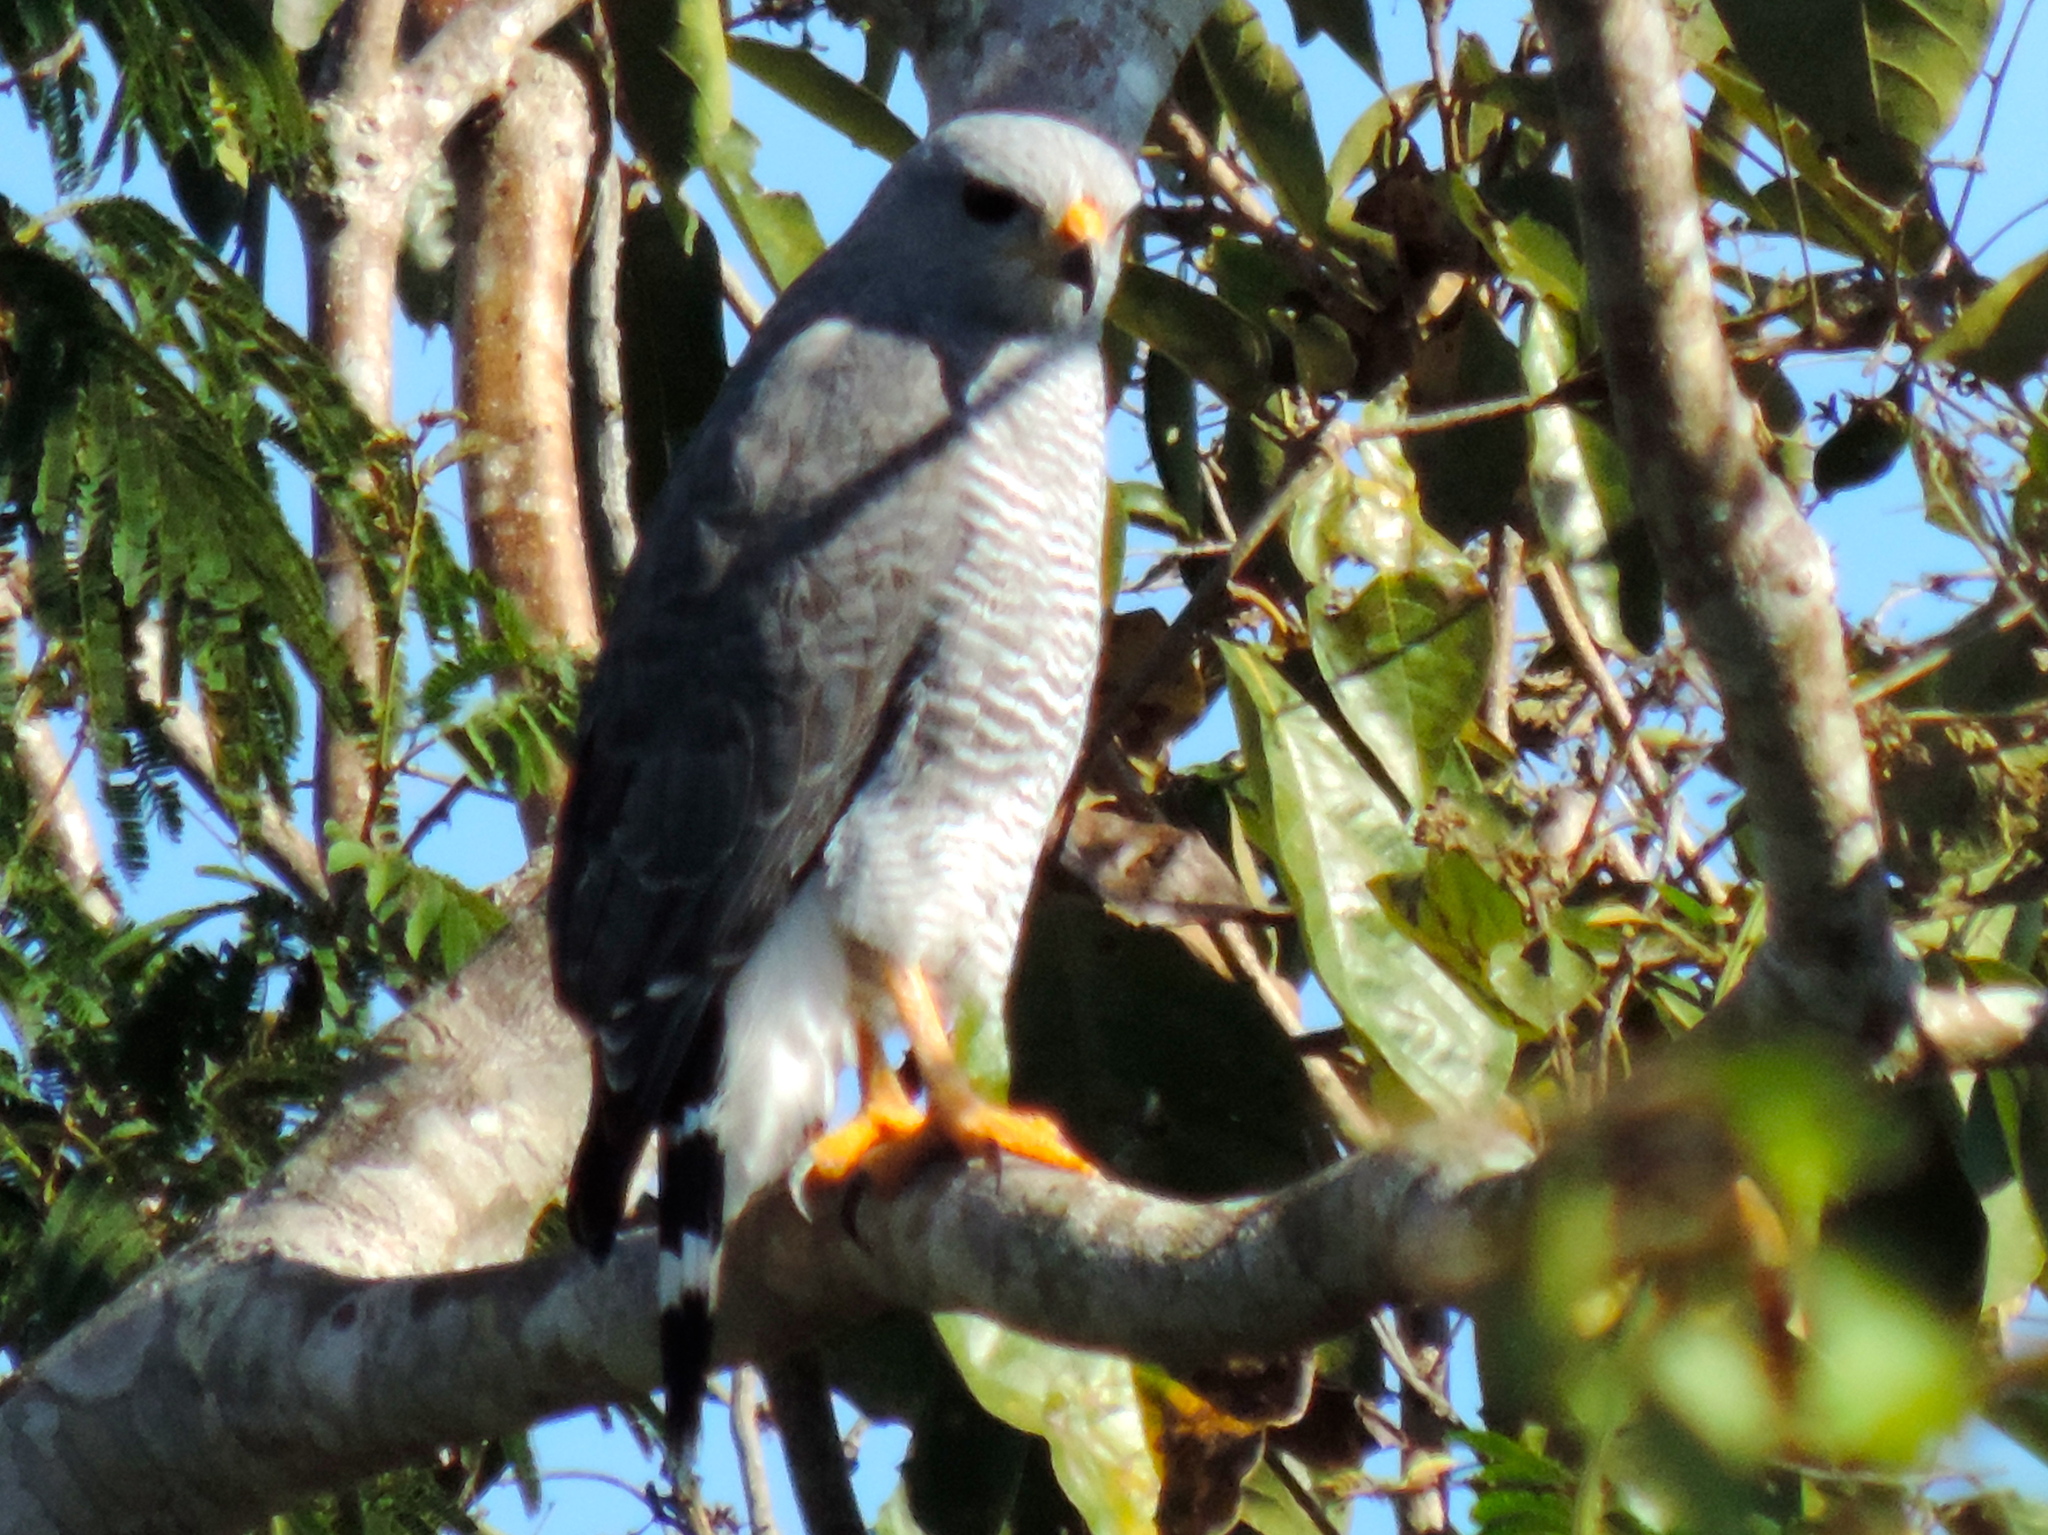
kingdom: Animalia
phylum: Chordata
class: Aves
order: Accipitriformes
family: Accipitridae
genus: Buteo
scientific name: Buteo nitidus
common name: Grey-lined hawk
